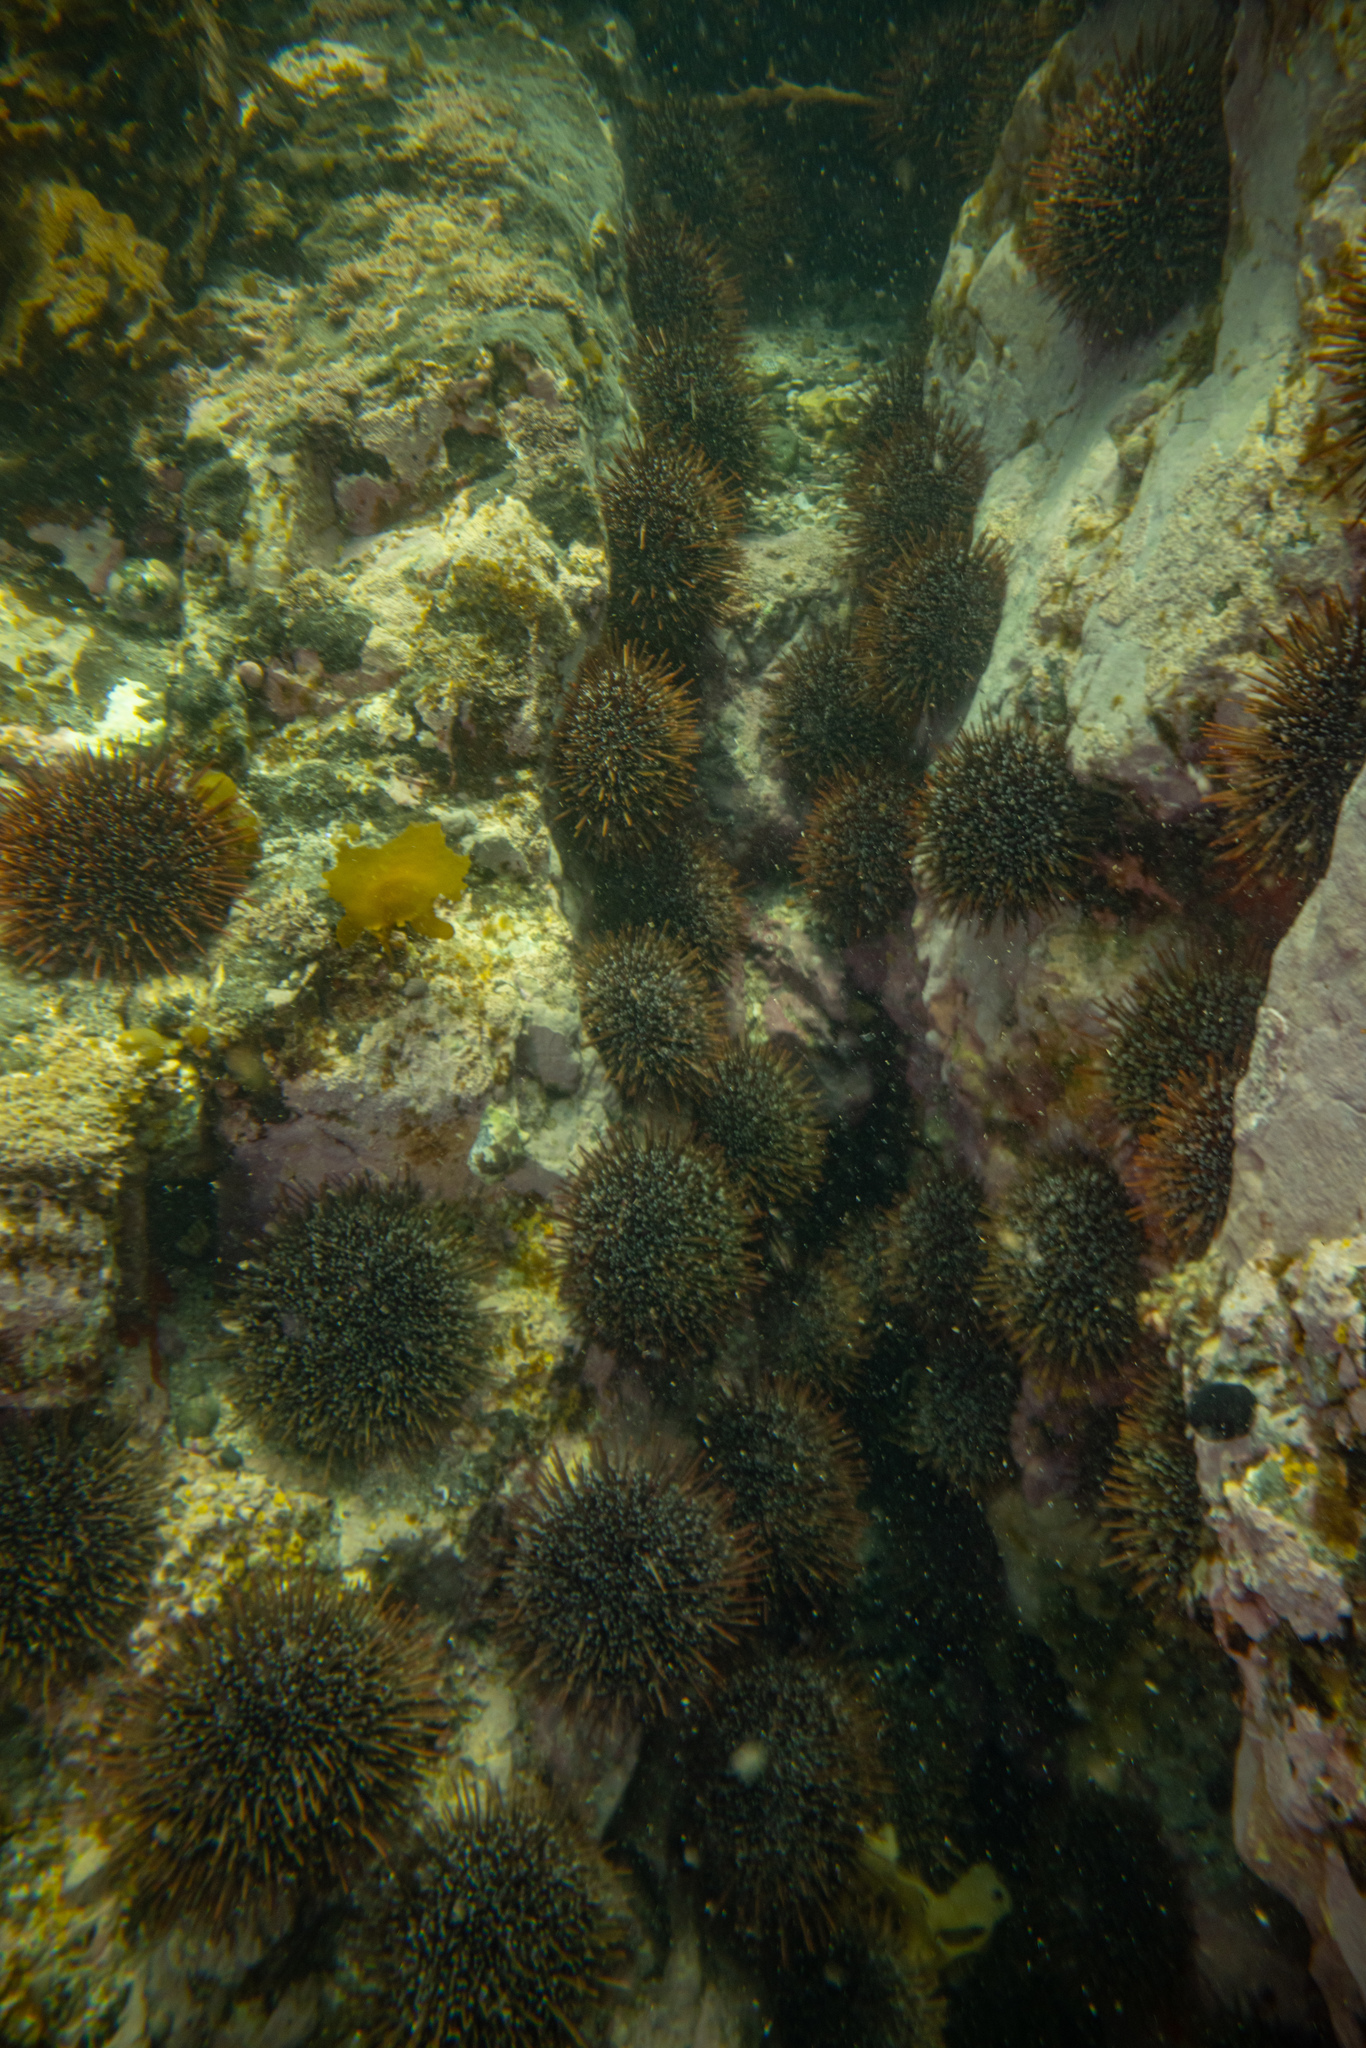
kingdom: Animalia
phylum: Echinodermata
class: Echinoidea
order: Camarodonta
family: Echinometridae
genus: Evechinus
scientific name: Evechinus chloroticus
